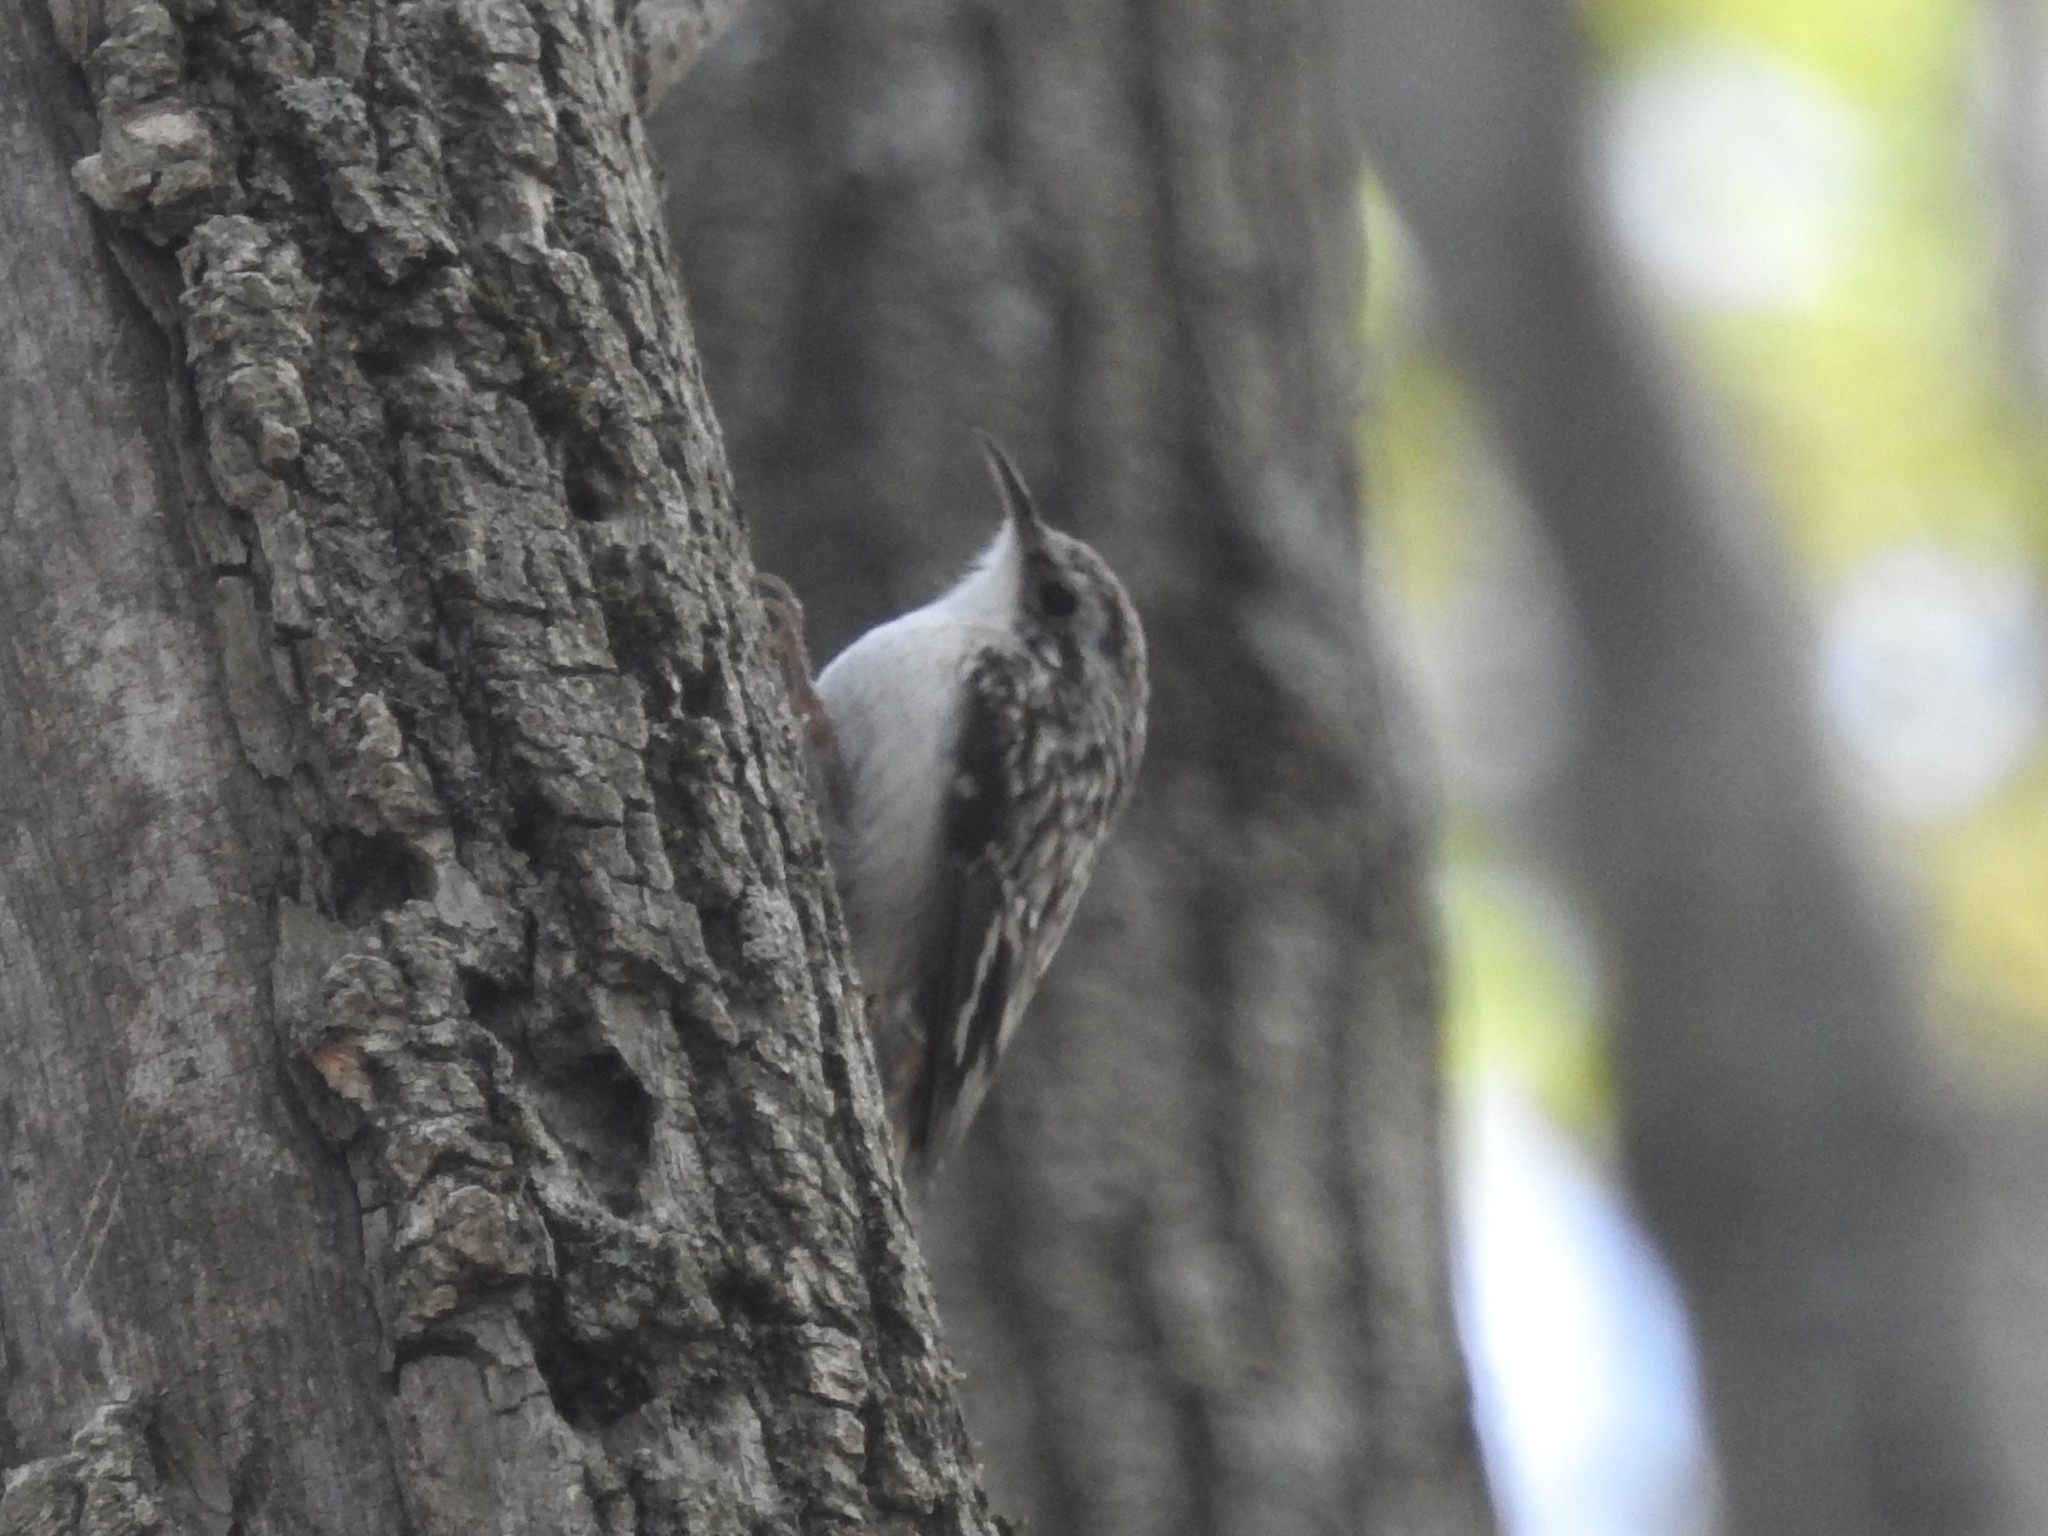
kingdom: Animalia
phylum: Chordata
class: Aves
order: Passeriformes
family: Certhiidae
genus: Certhia
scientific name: Certhia americana
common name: Brown creeper
